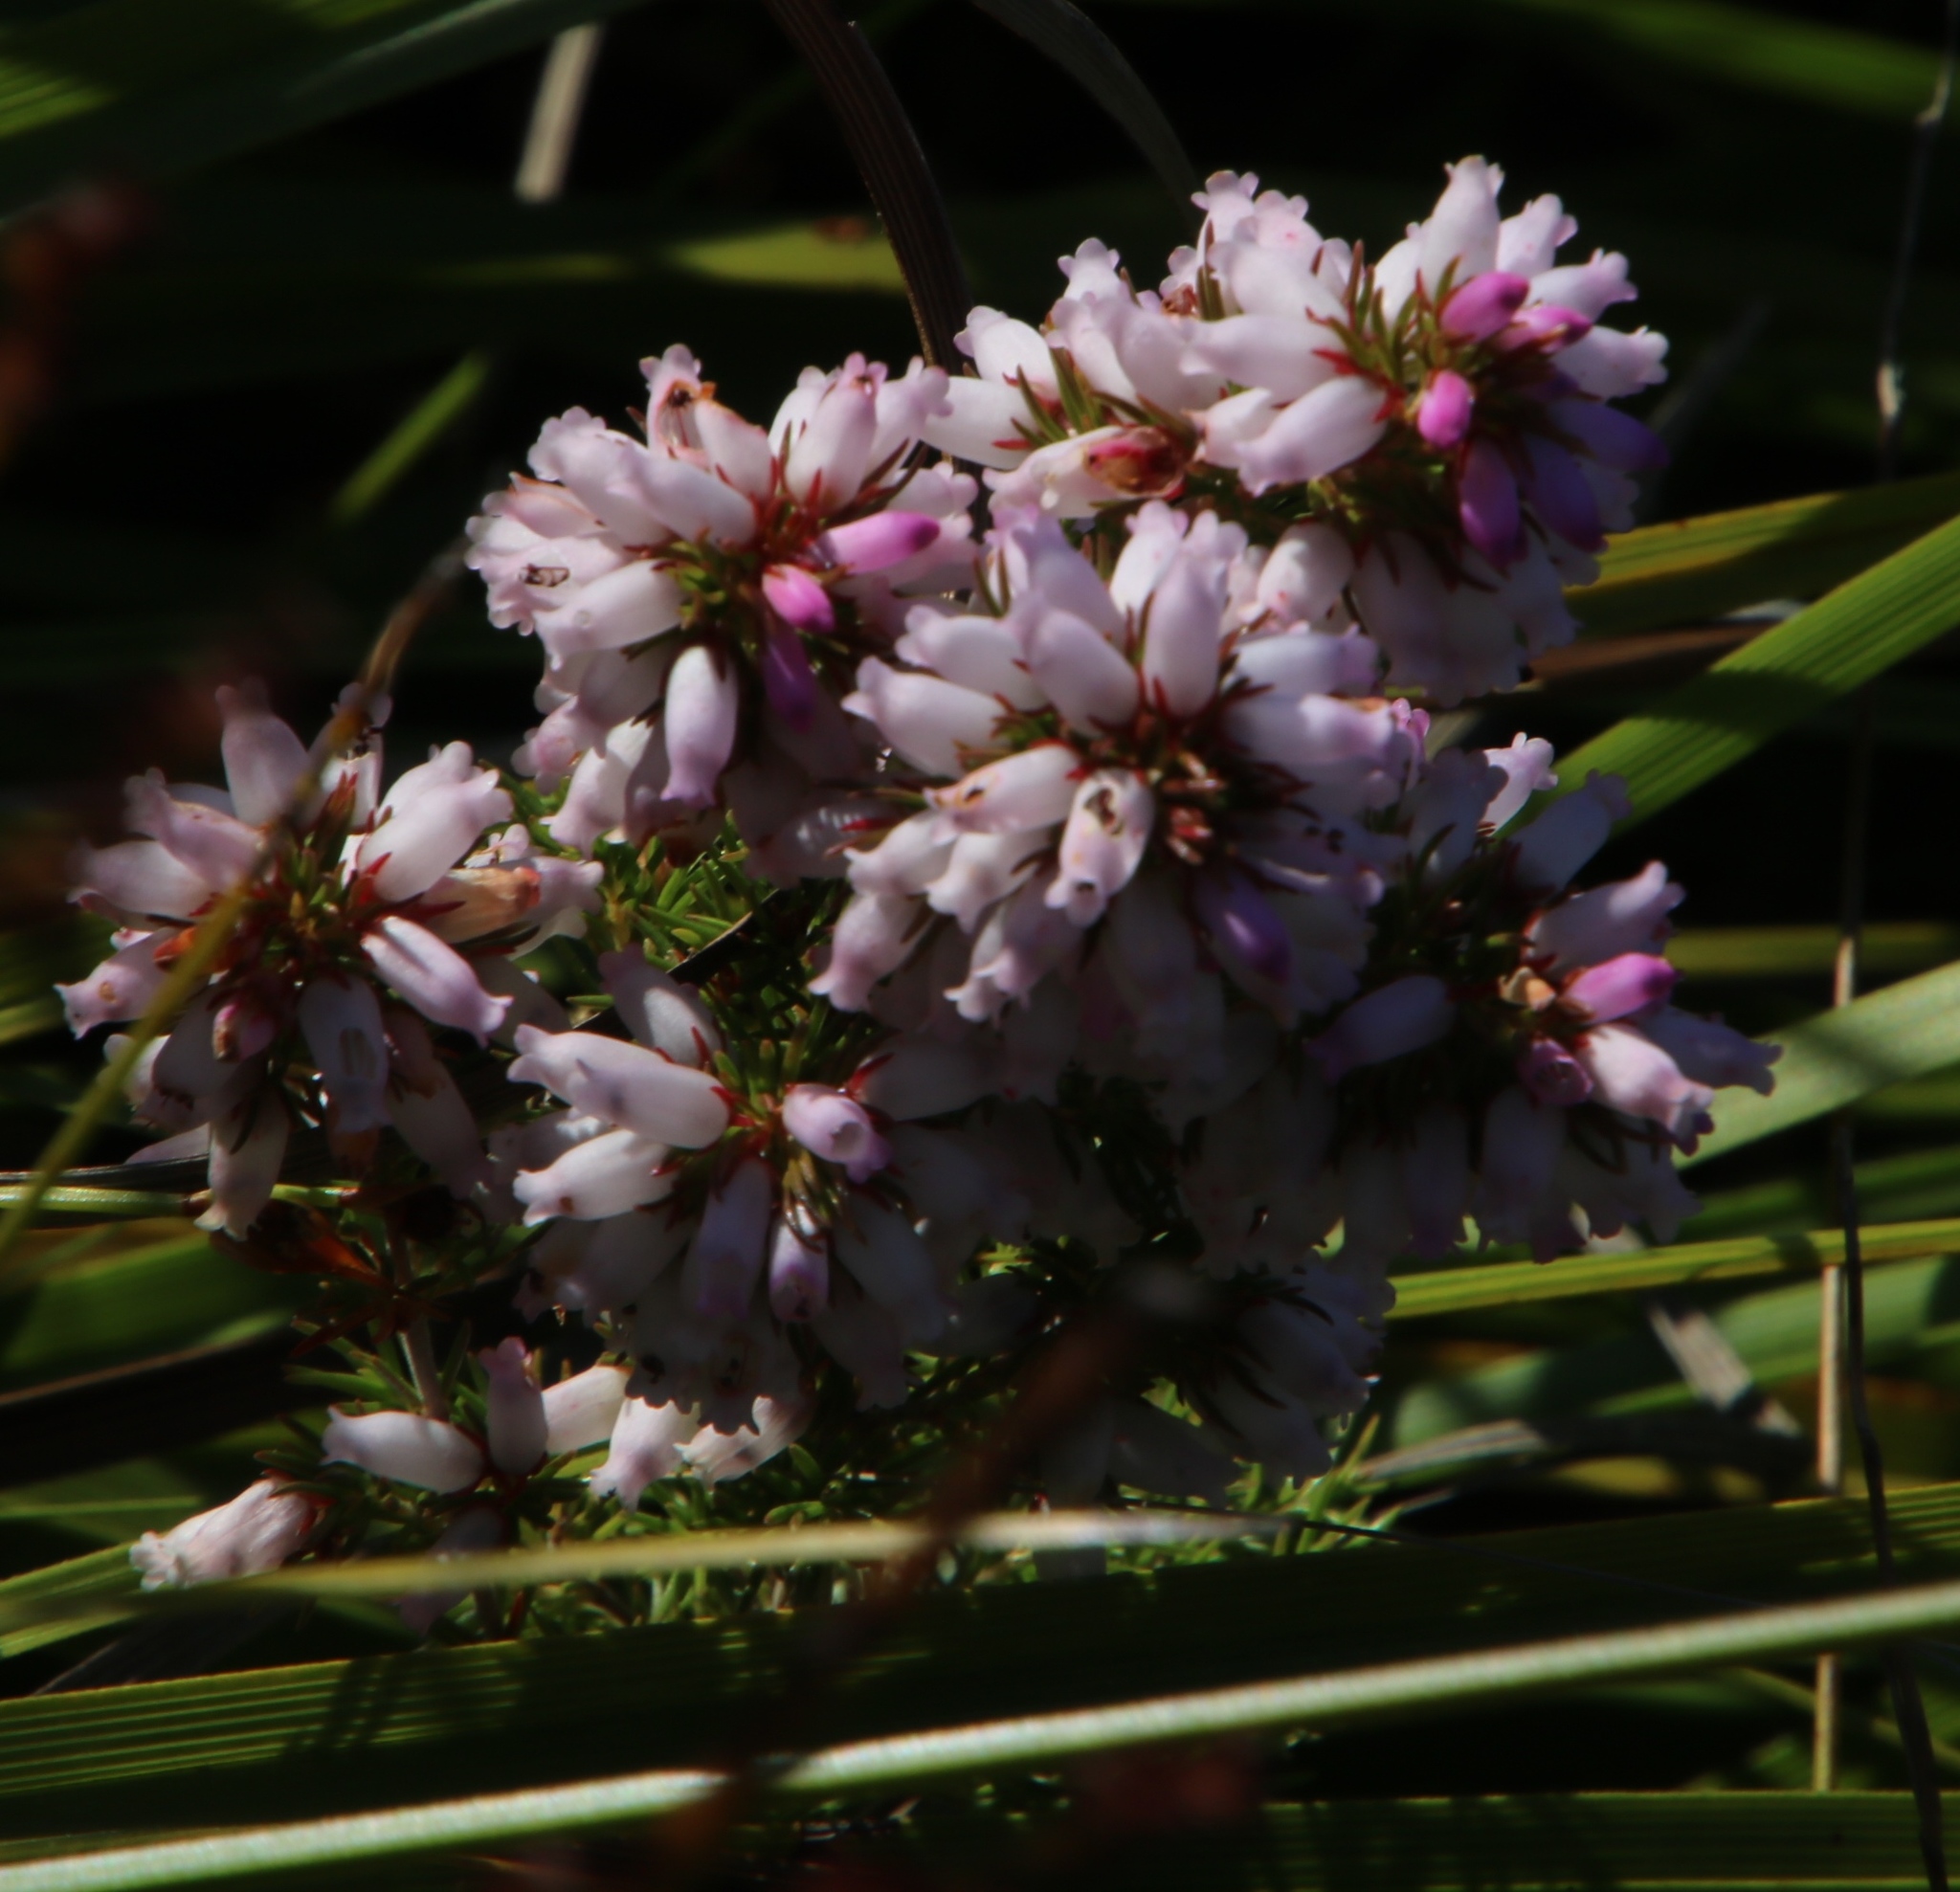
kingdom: Plantae
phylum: Tracheophyta
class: Magnoliopsida
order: Ericales
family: Ericaceae
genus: Erica
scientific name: Erica sitiens
